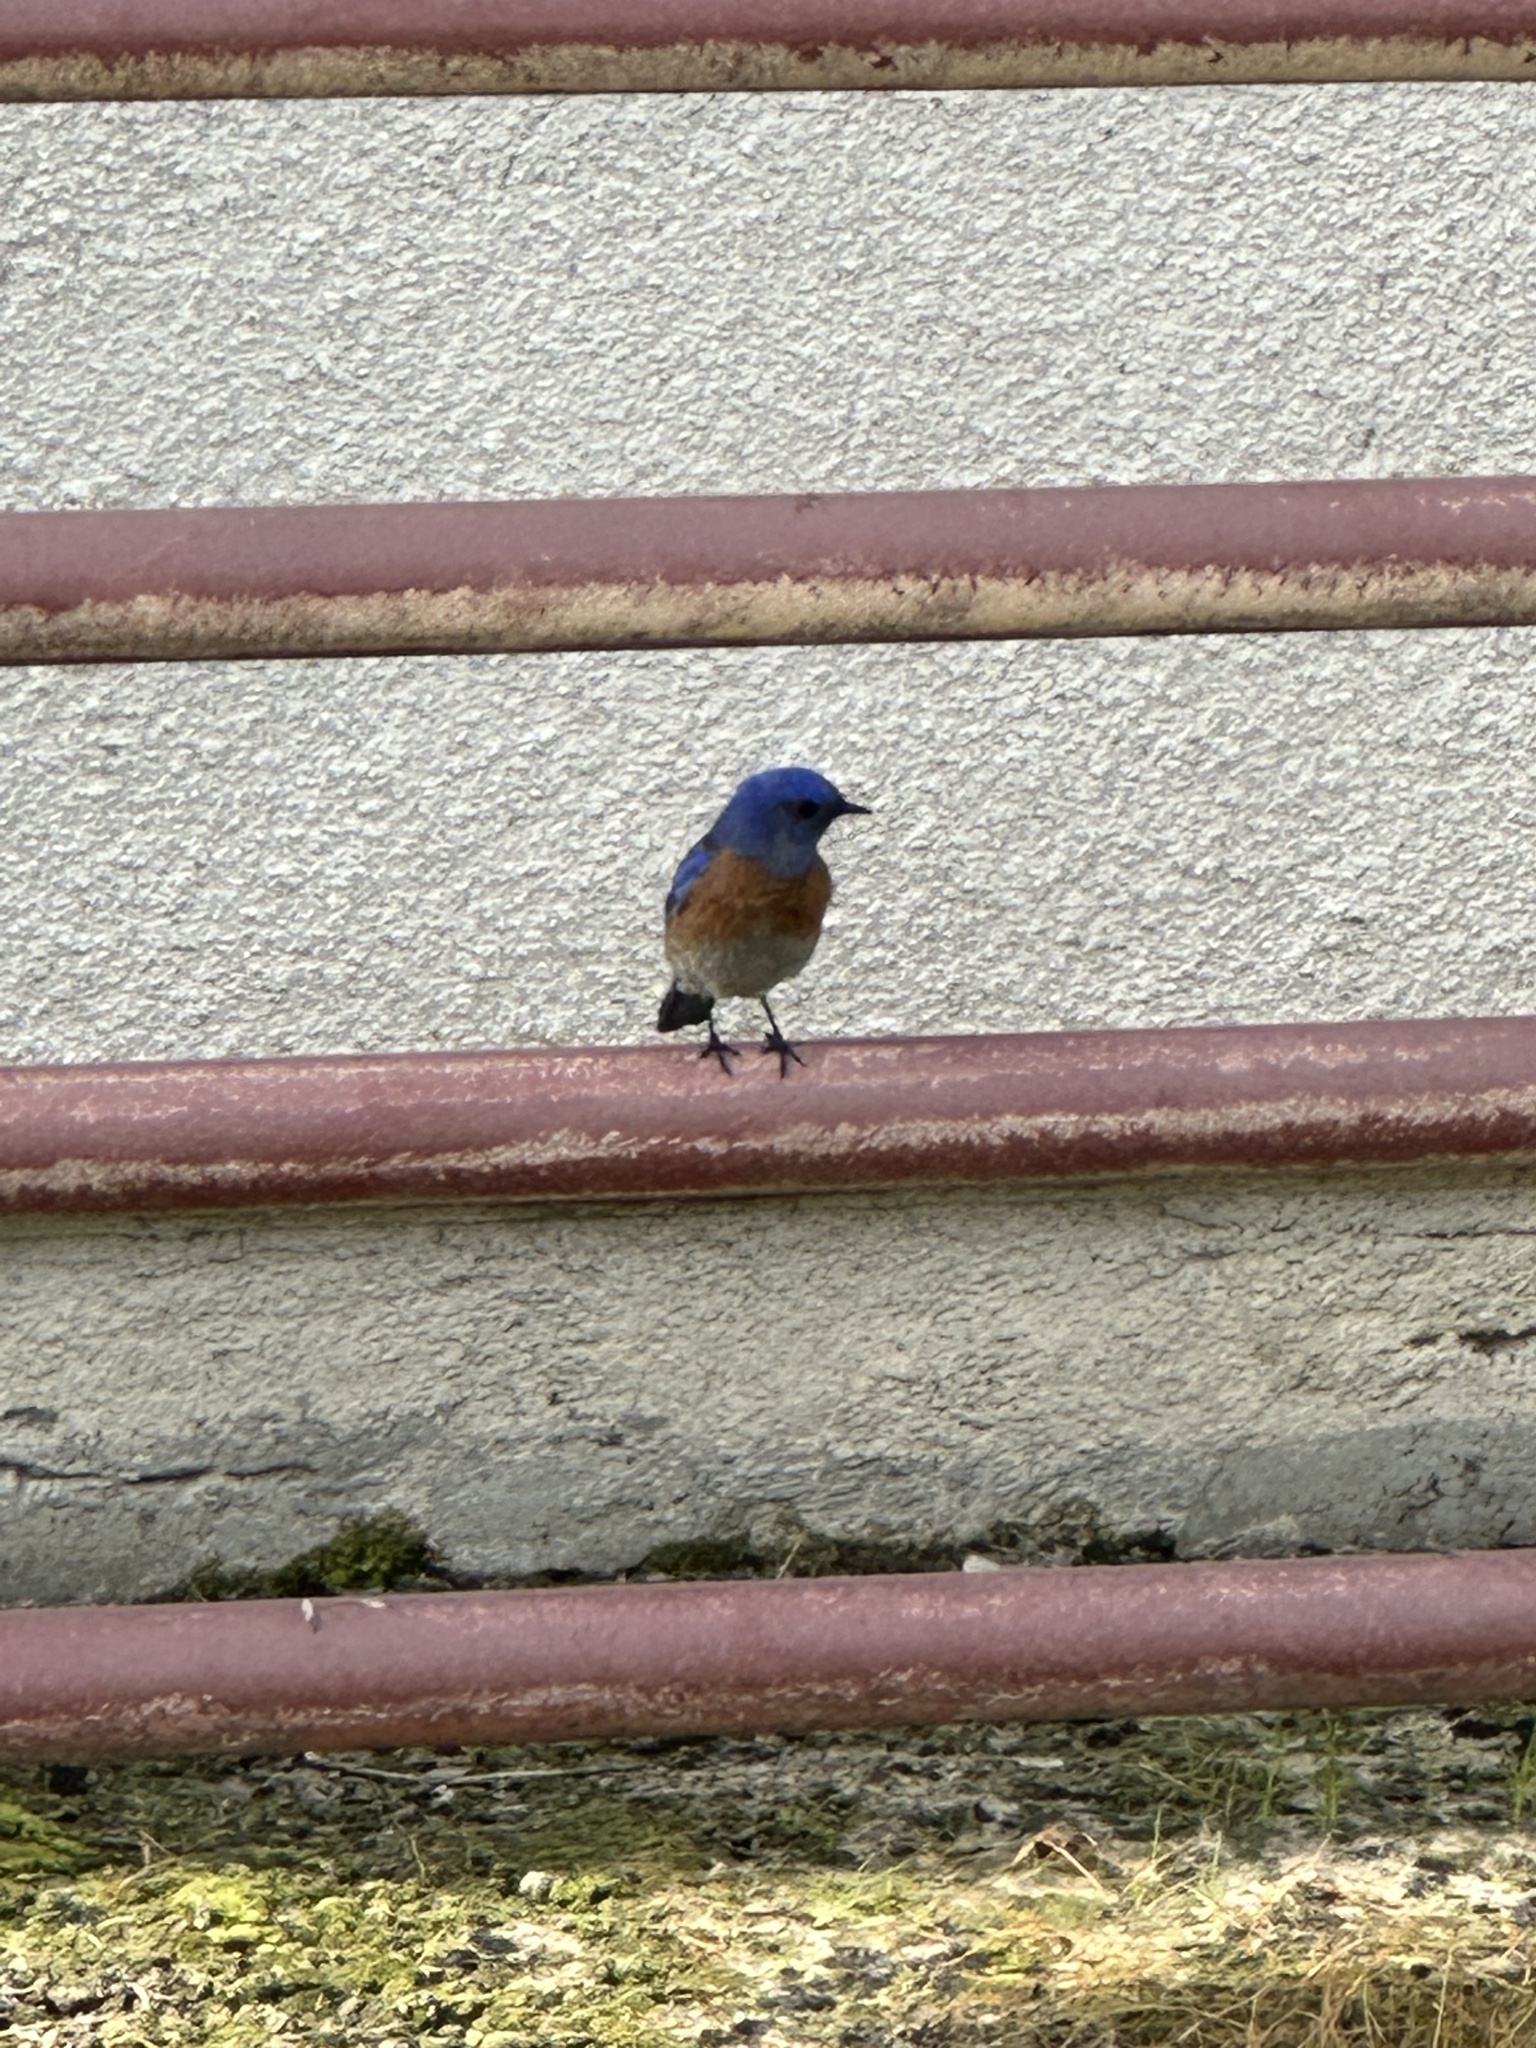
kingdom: Animalia
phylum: Chordata
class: Aves
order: Passeriformes
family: Turdidae
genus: Sialia
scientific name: Sialia mexicana
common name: Western bluebird
